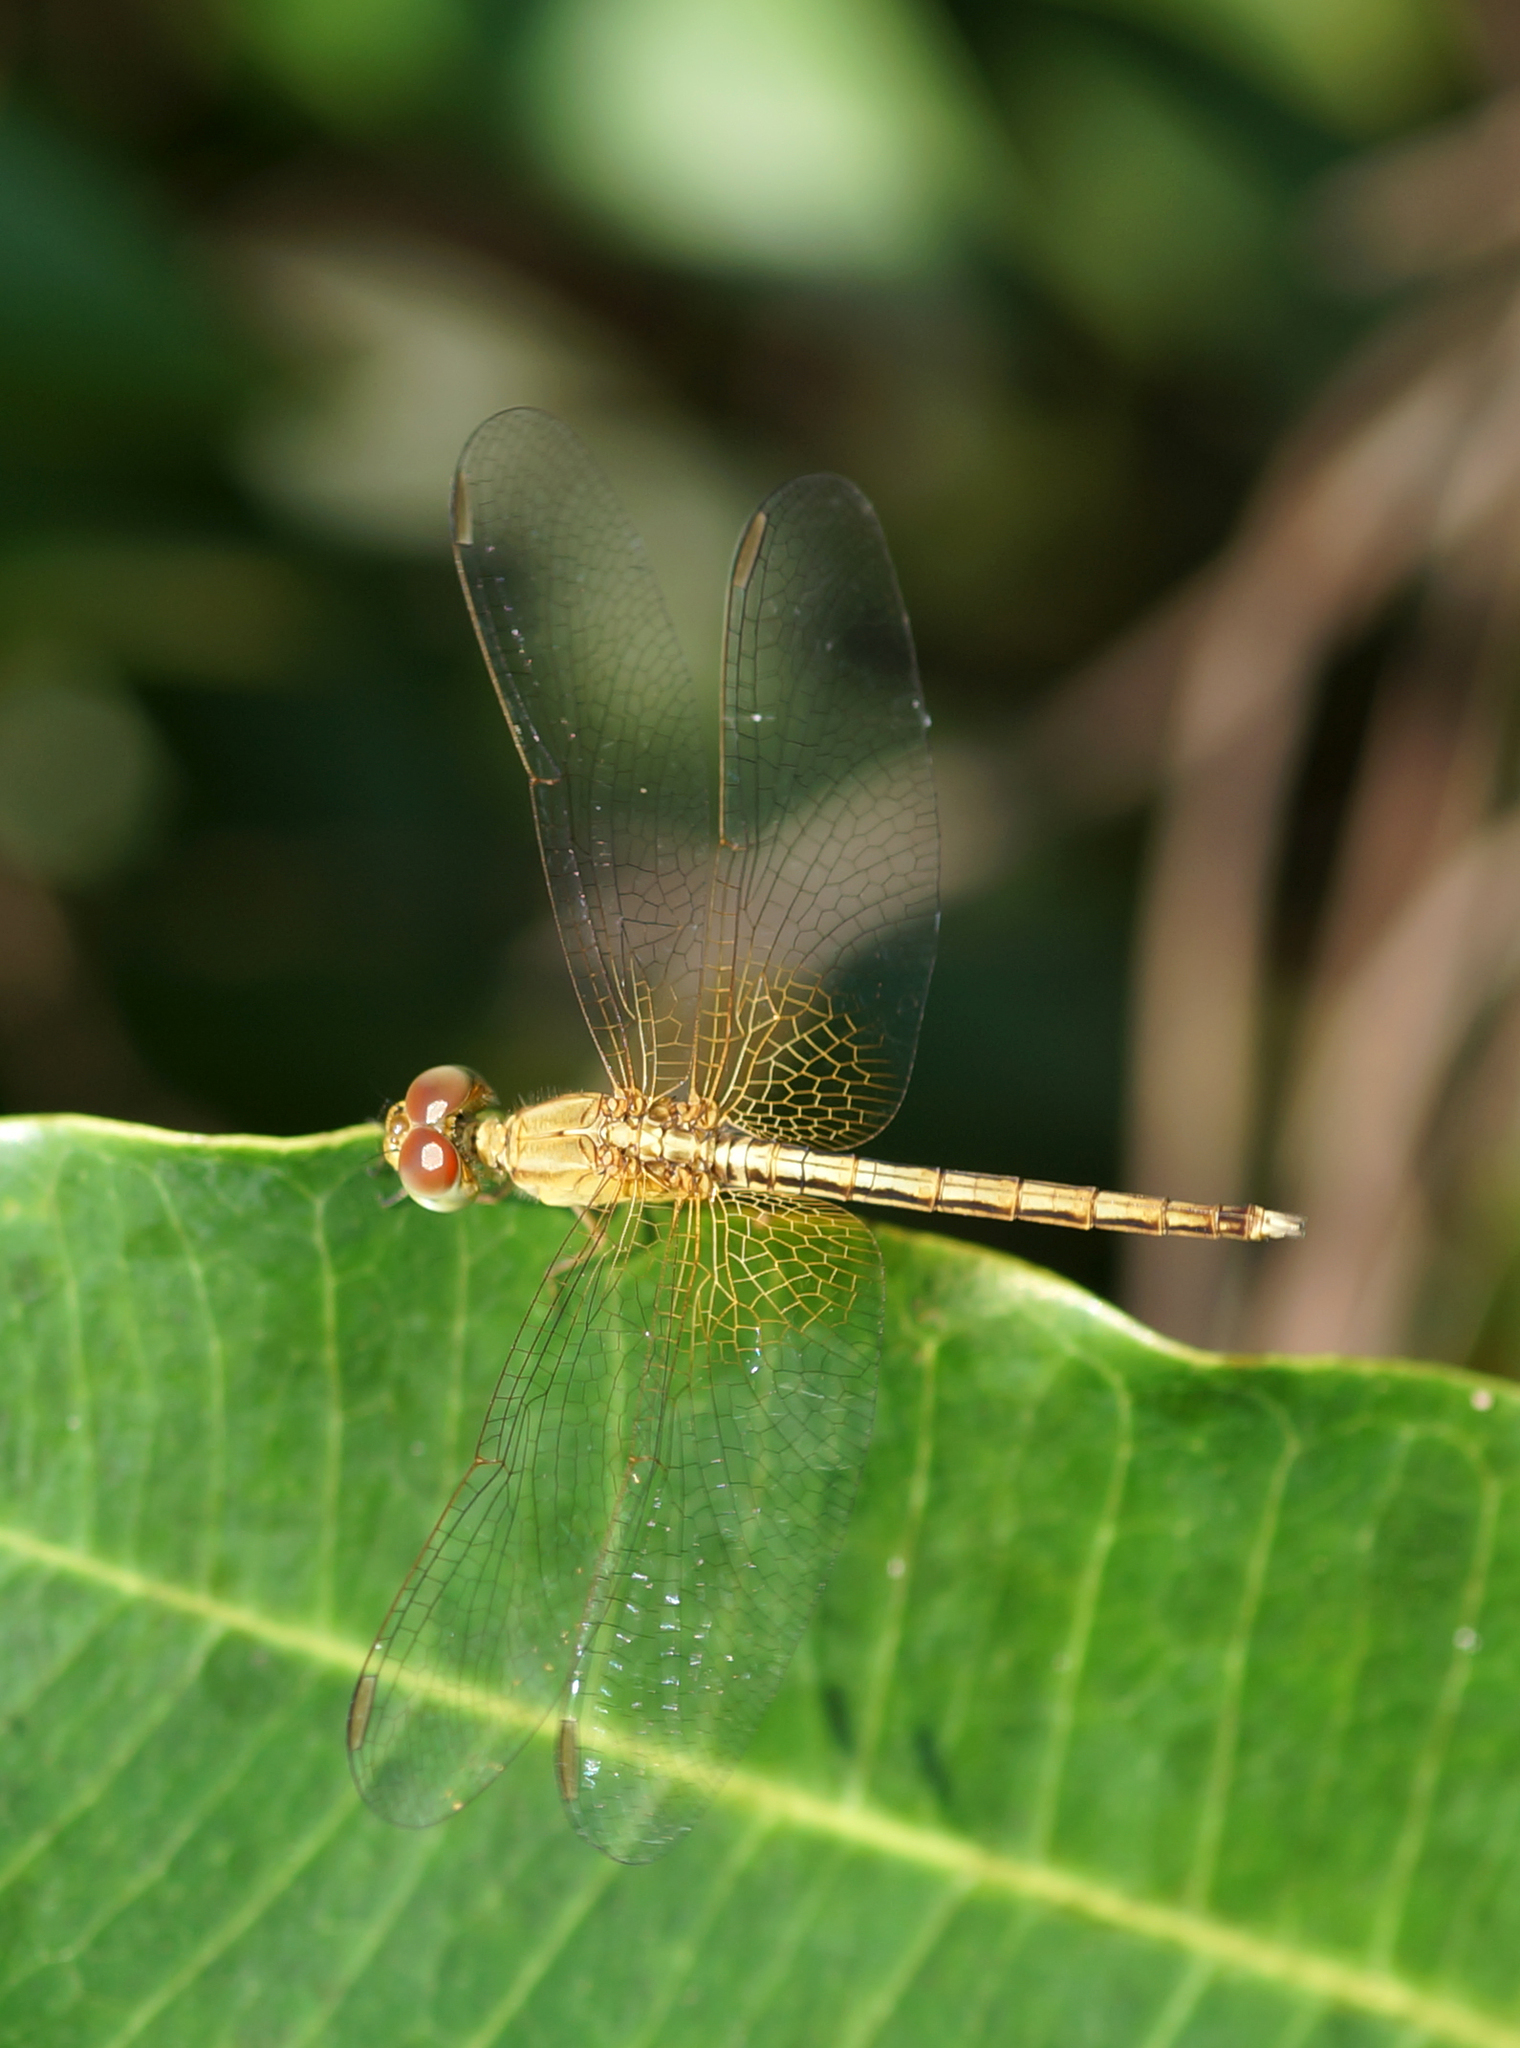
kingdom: Animalia
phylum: Arthropoda
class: Insecta
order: Odonata
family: Libellulidae
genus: Neurothemis
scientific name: Neurothemis intermedia
